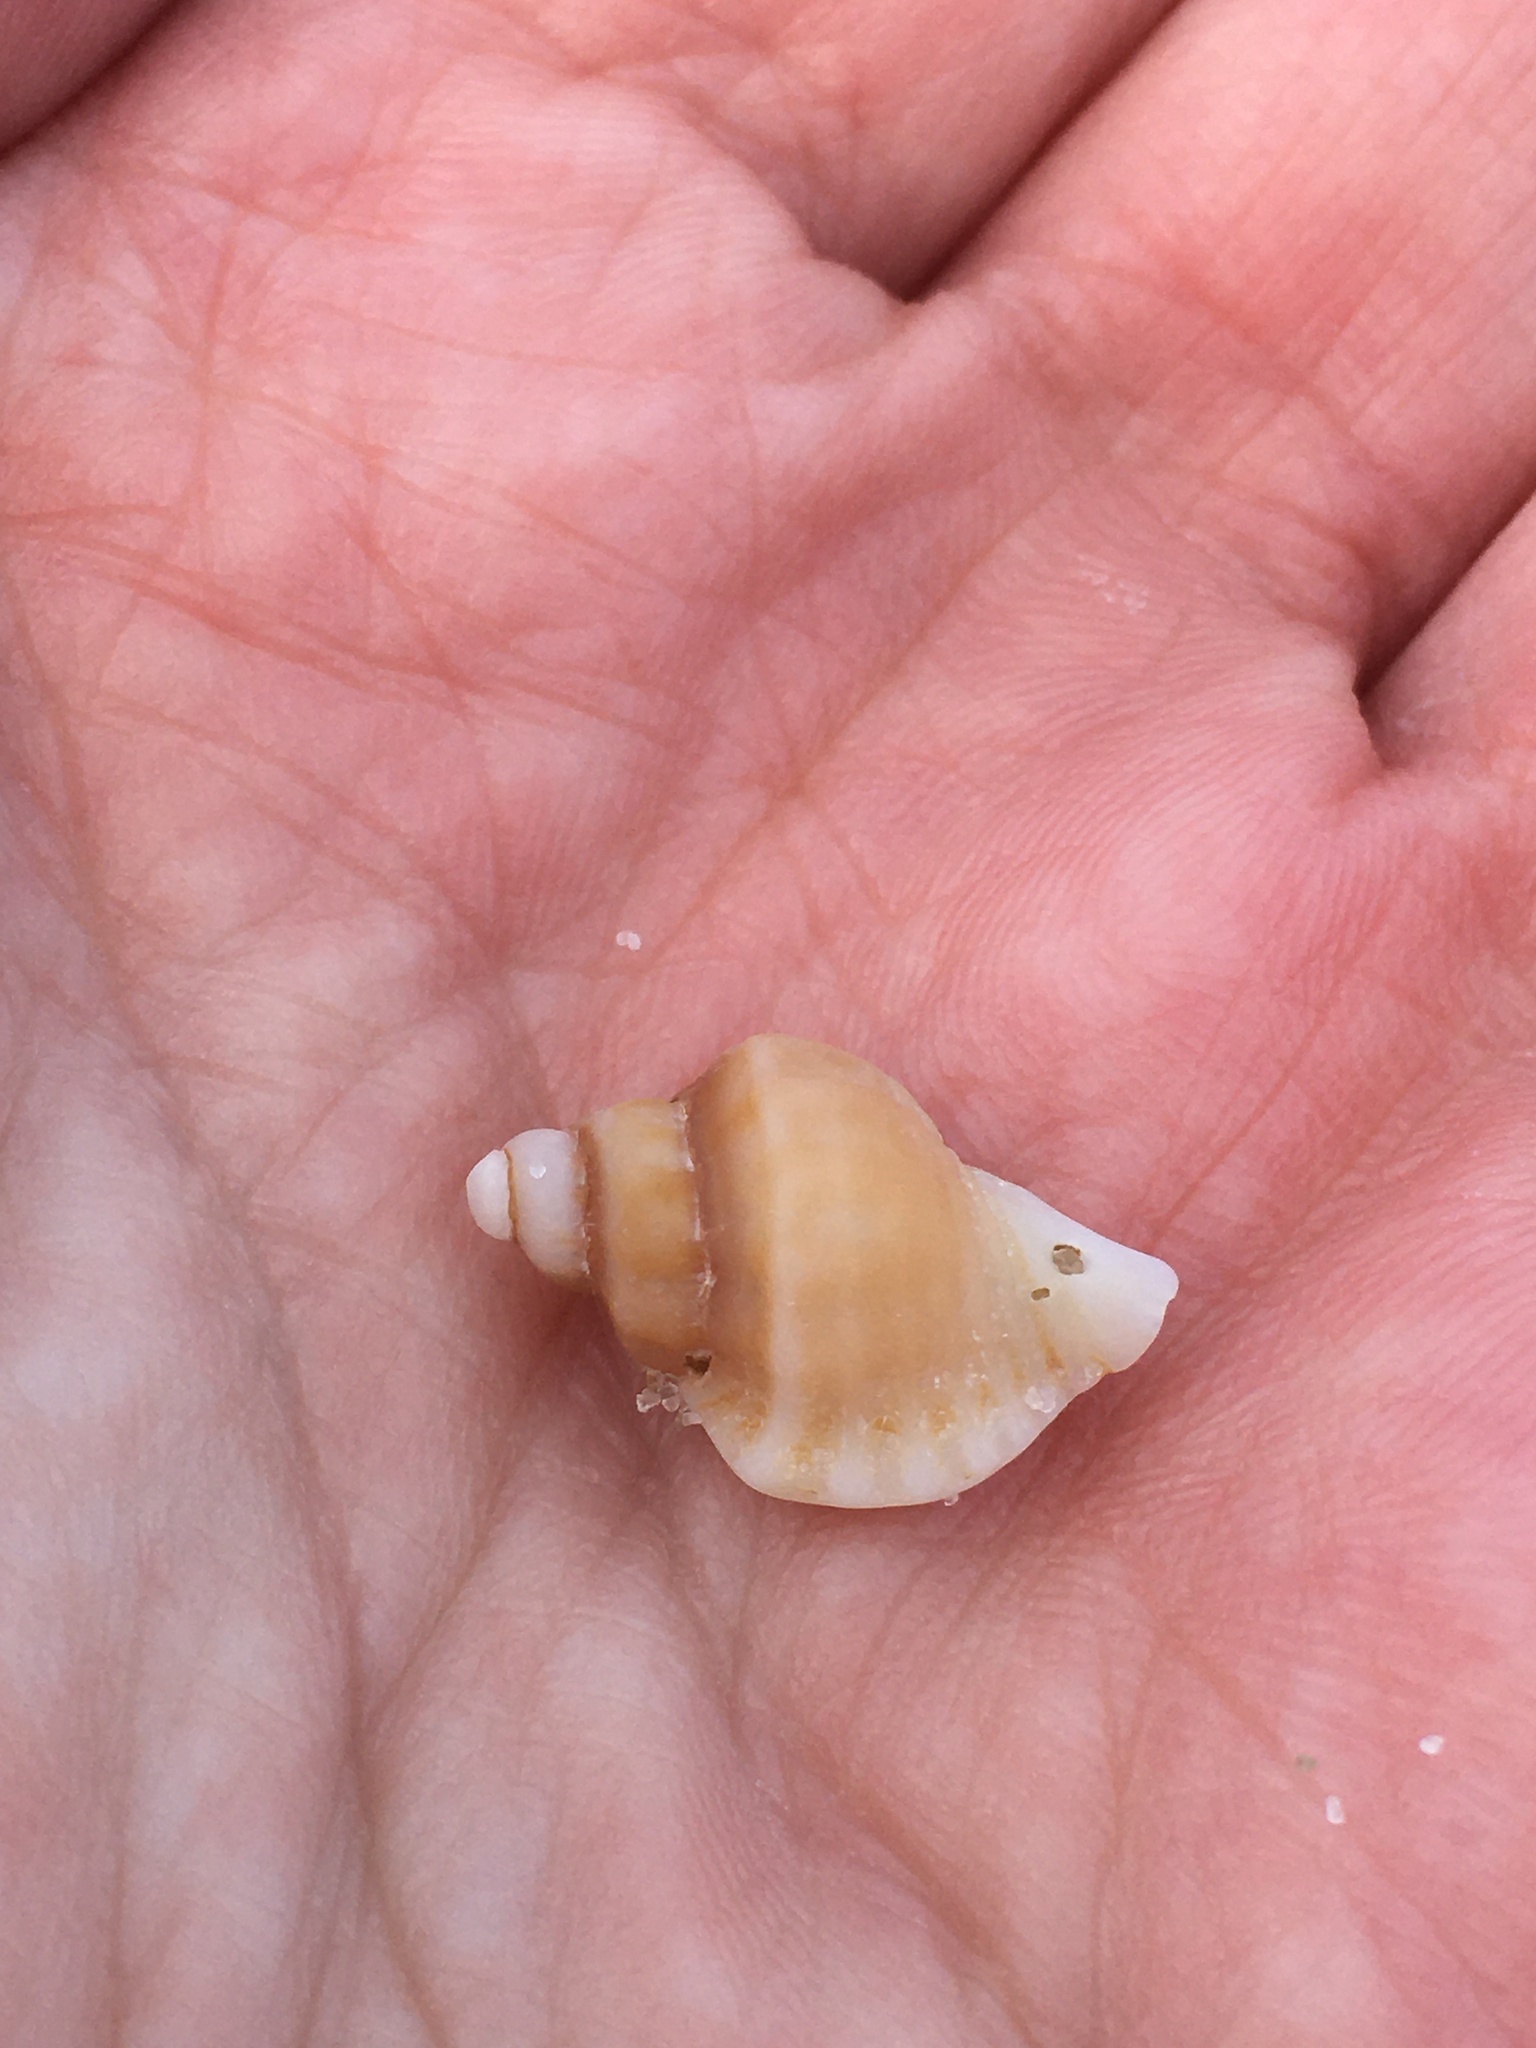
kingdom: Animalia
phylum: Mollusca
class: Gastropoda
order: Neogastropoda
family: Muricidae
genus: Eupleura
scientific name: Eupleura caudata
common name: Thick-lip drill
